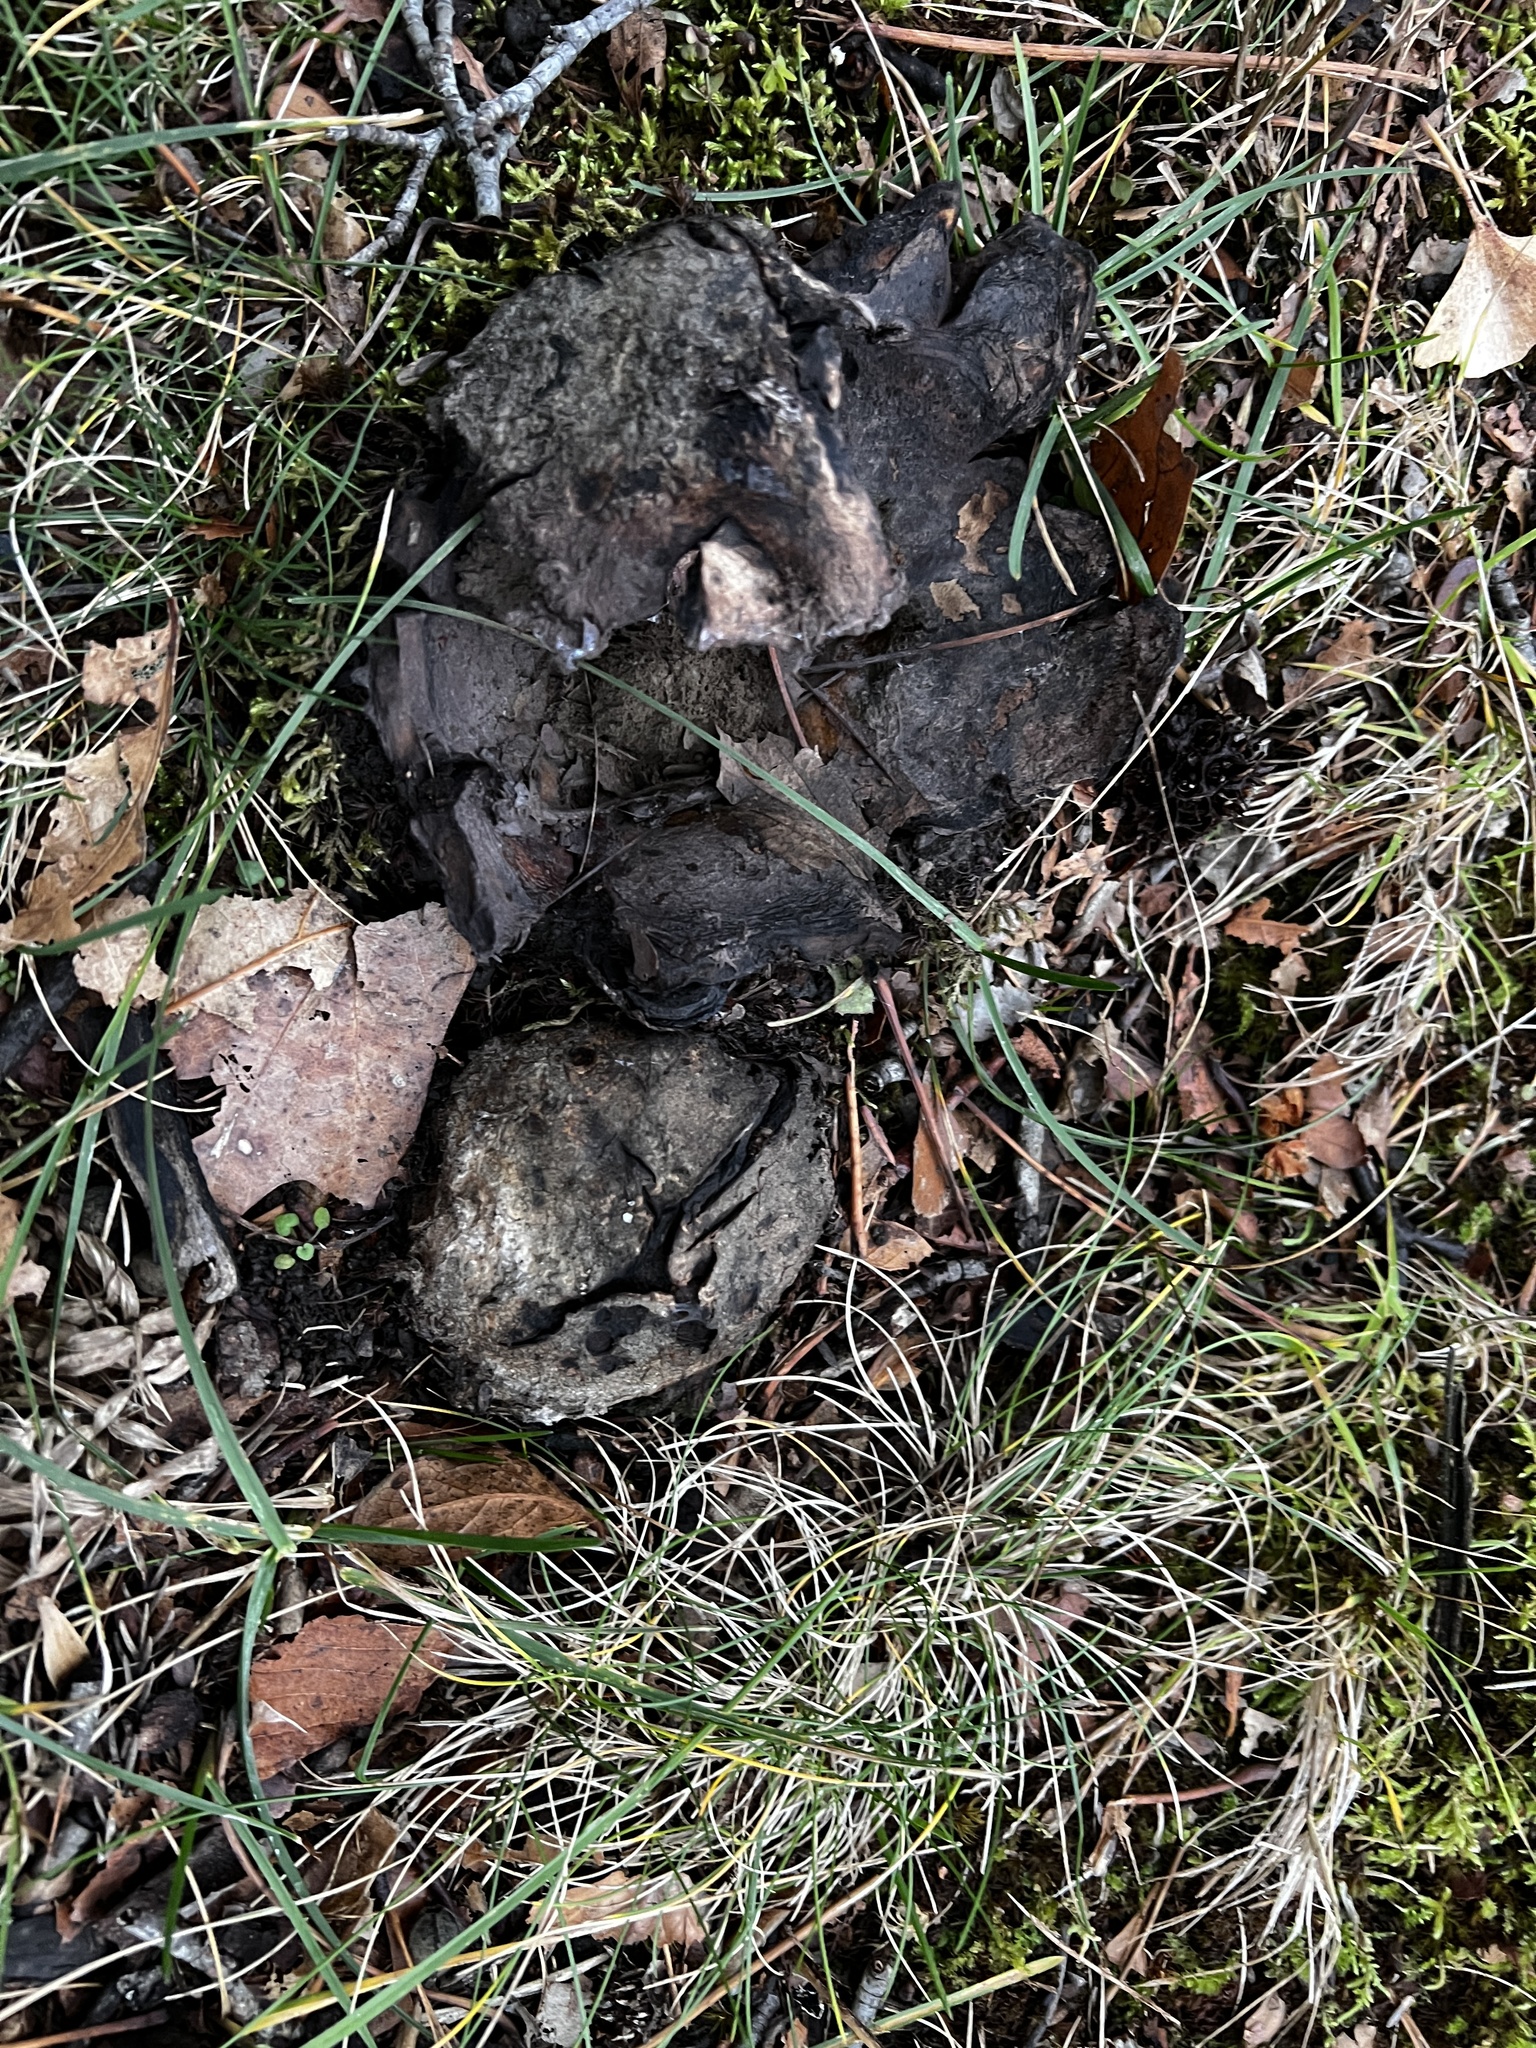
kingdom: Fungi
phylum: Basidiomycota
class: Agaricomycetes
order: Boletales
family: Sclerodermataceae
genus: Scleroderma
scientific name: Scleroderma polyrhizum
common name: Many-rooted earthball
